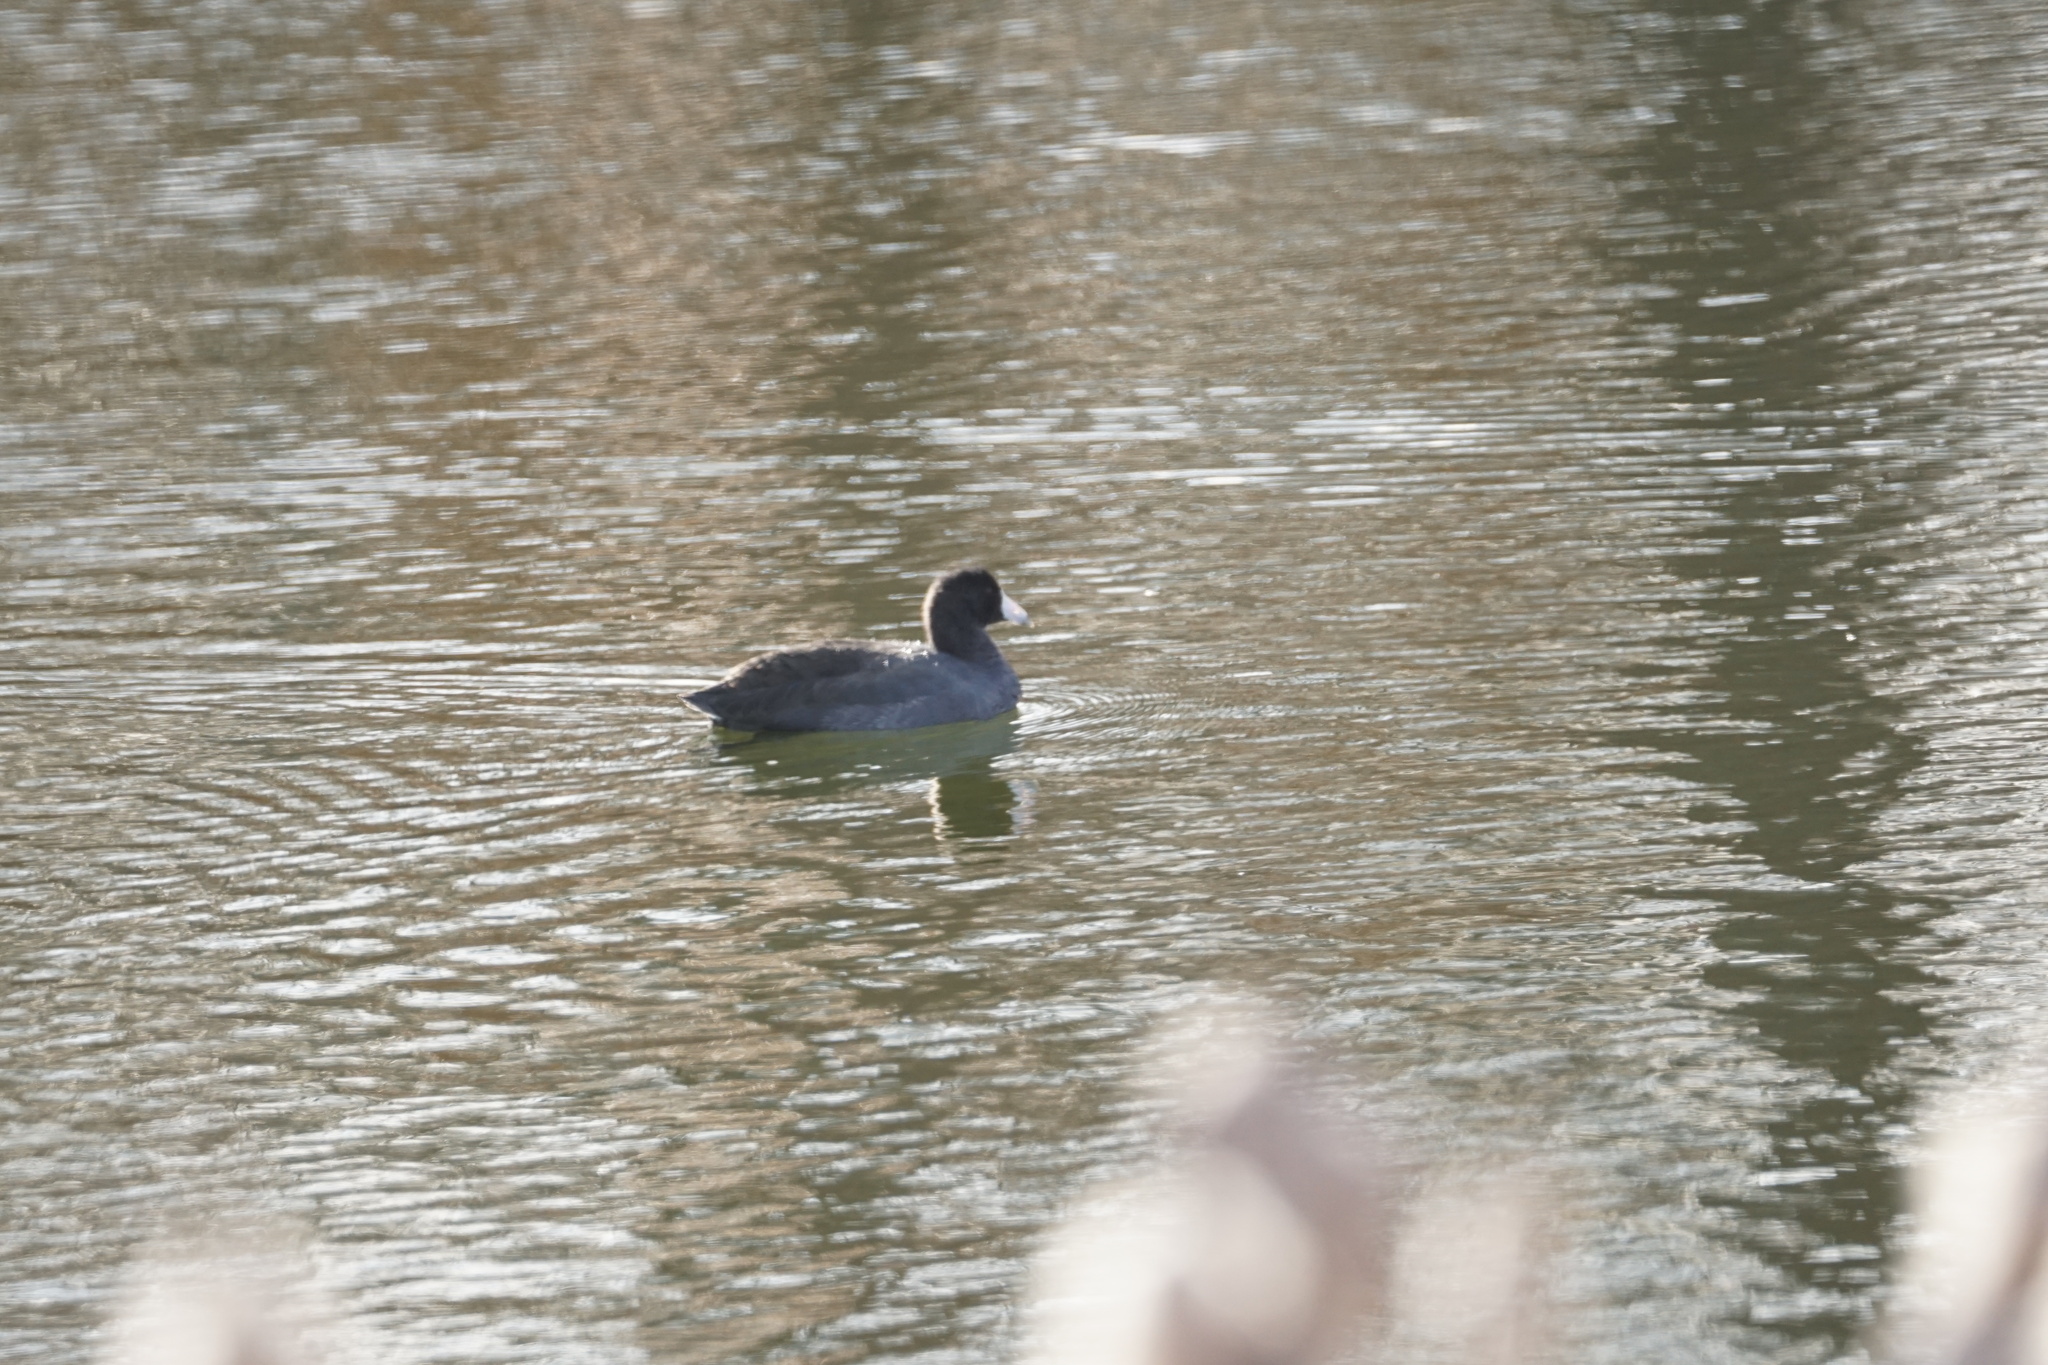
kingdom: Animalia
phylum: Chordata
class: Aves
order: Gruiformes
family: Rallidae
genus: Fulica
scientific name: Fulica americana
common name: American coot
